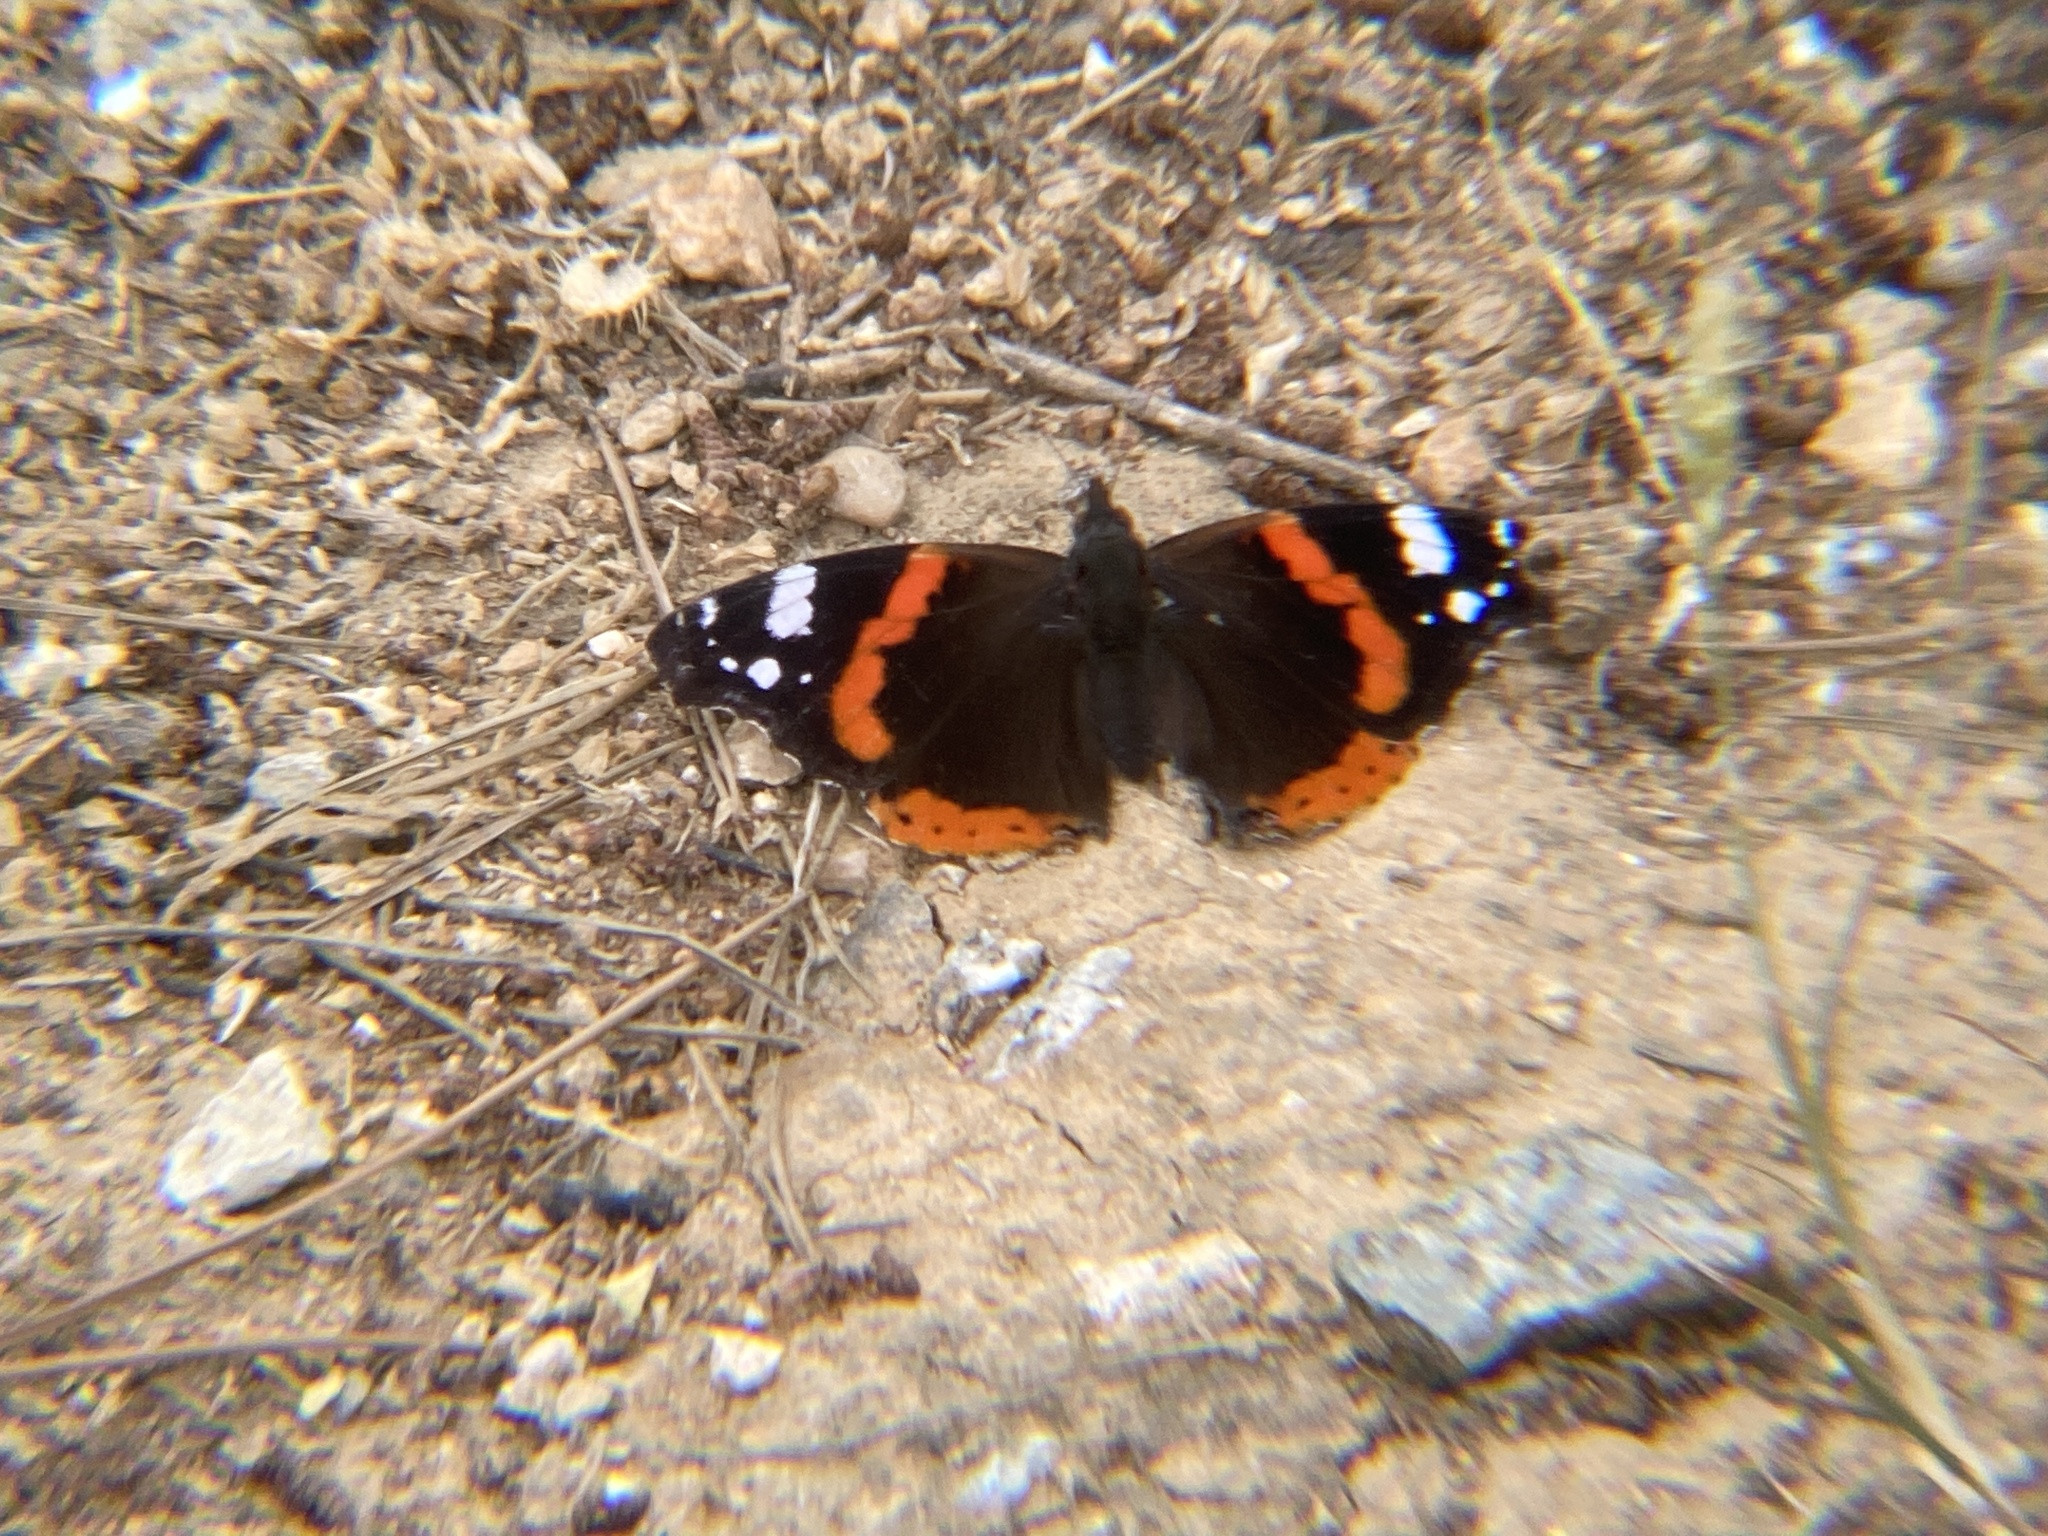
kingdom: Animalia
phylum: Arthropoda
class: Insecta
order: Lepidoptera
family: Nymphalidae
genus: Vanessa
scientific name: Vanessa atalanta
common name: Red admiral
